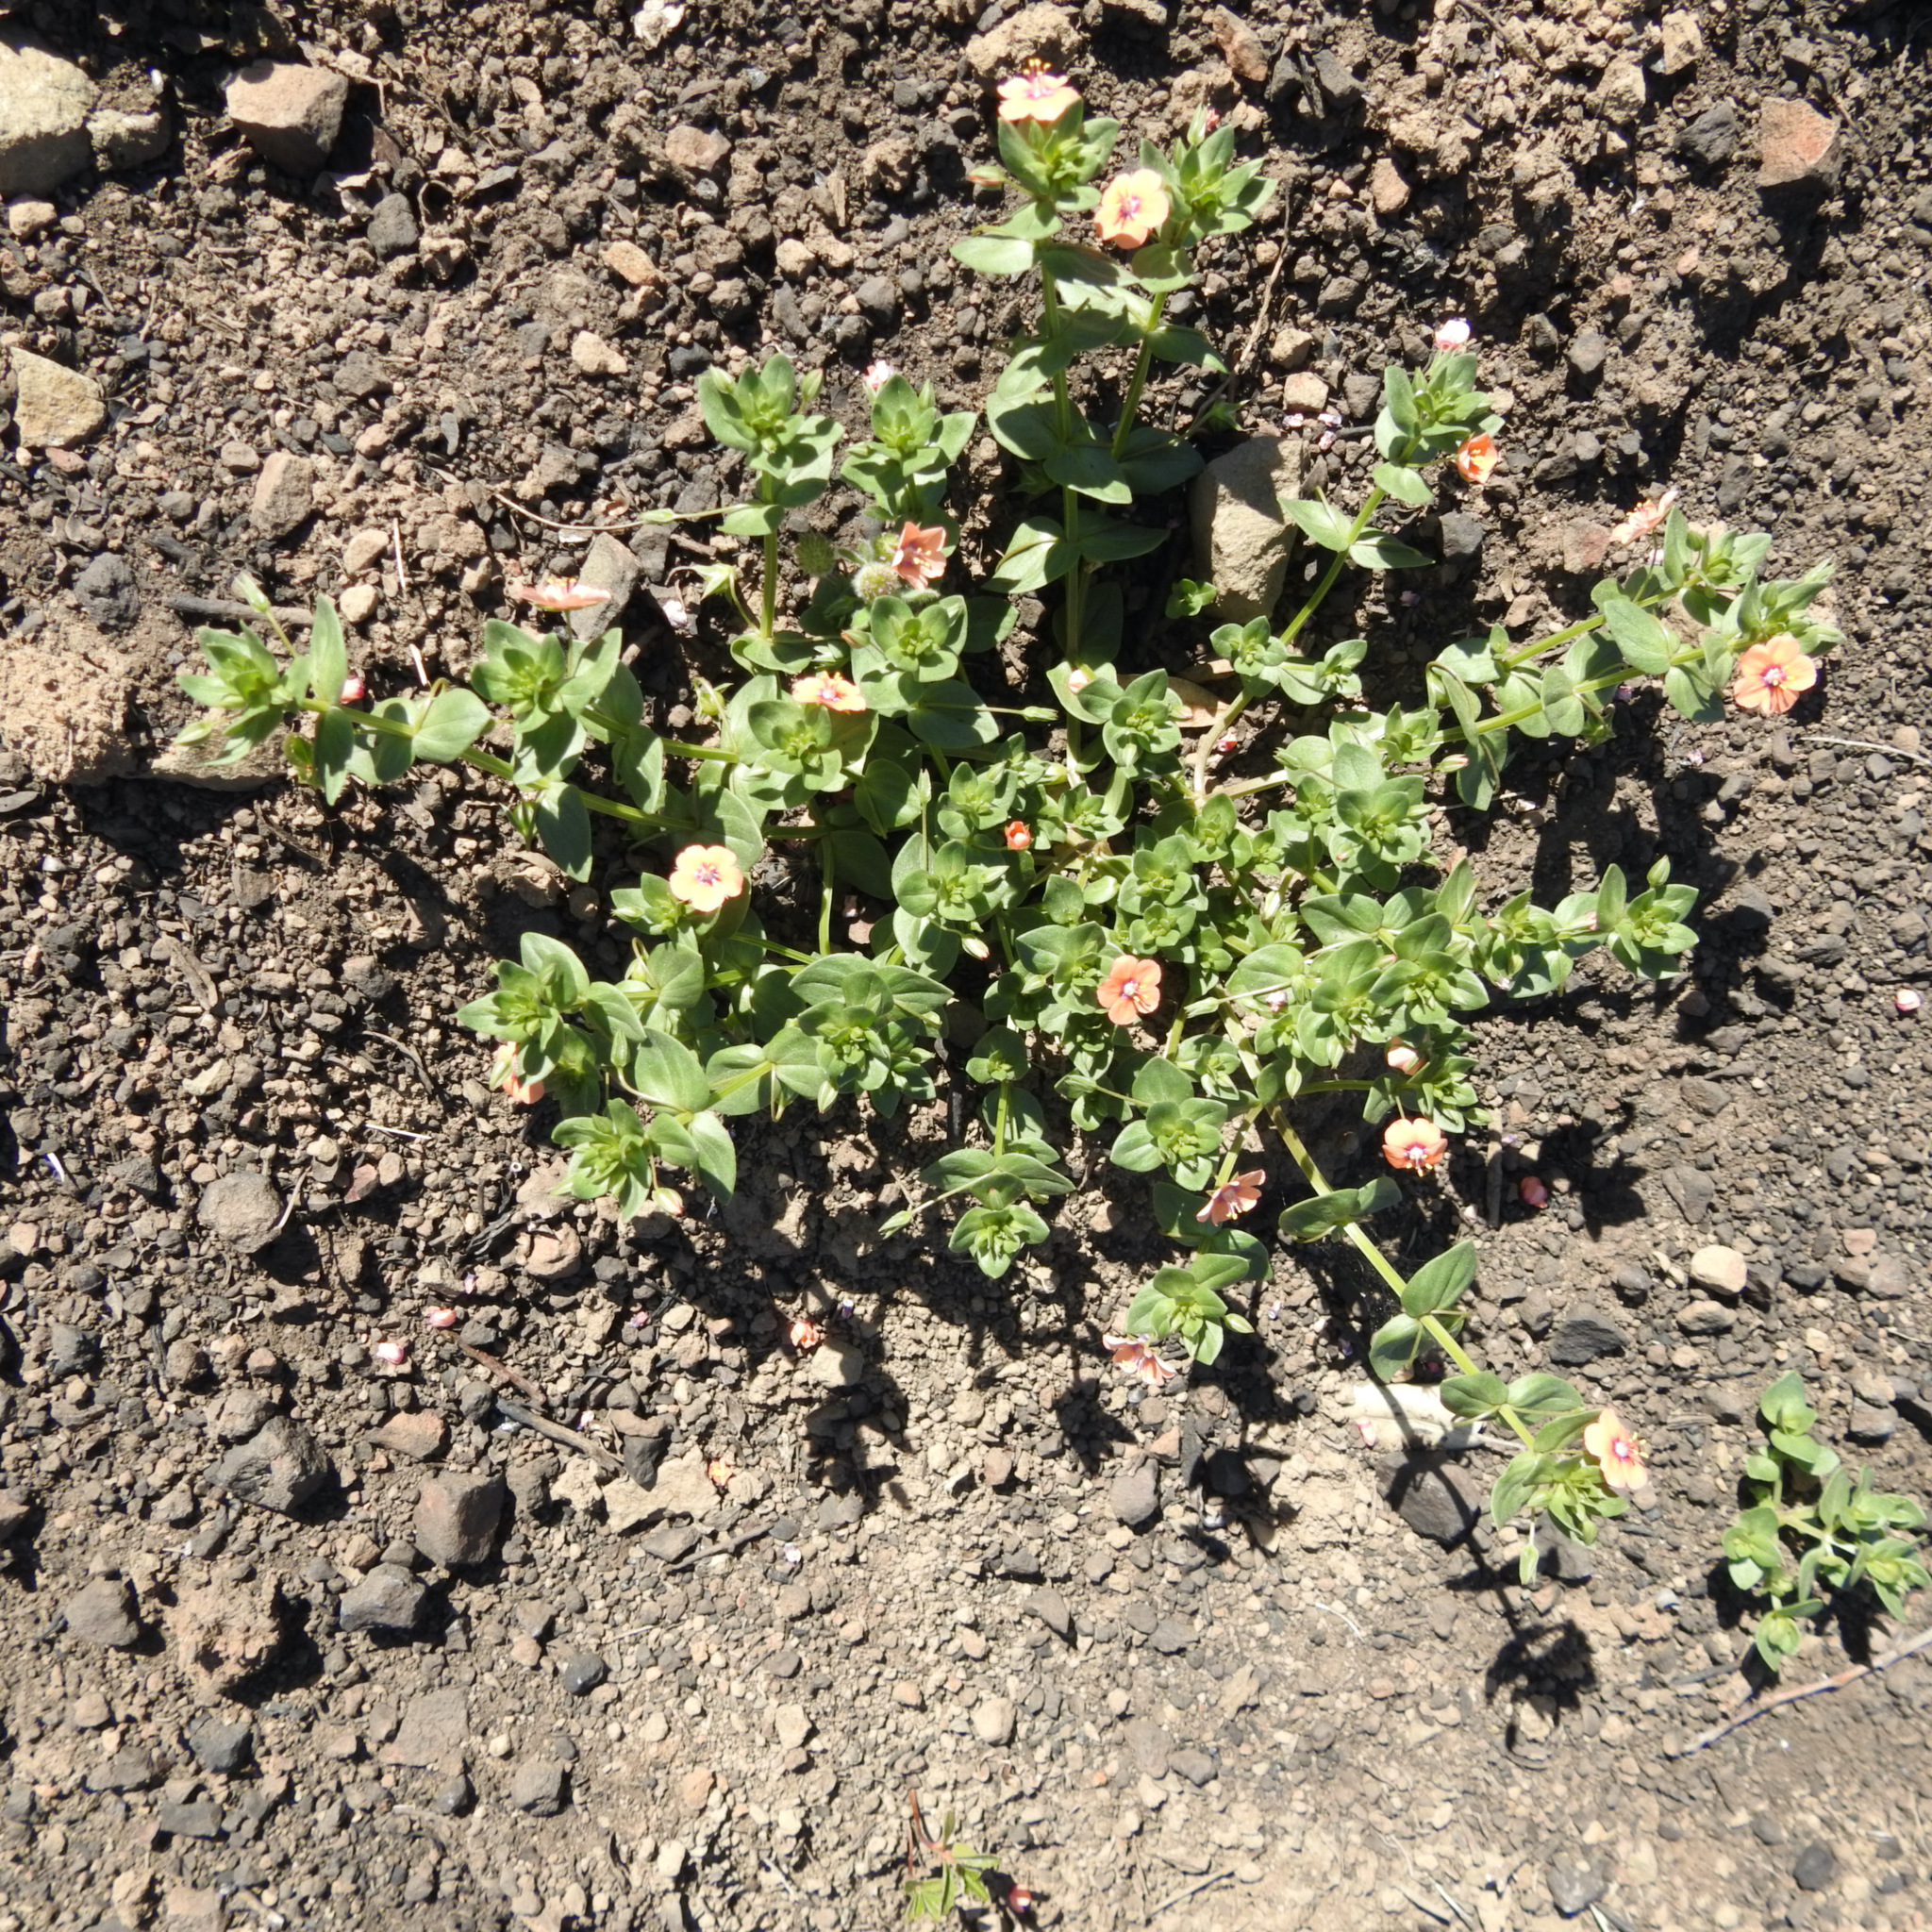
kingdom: Plantae
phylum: Tracheophyta
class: Magnoliopsida
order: Ericales
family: Primulaceae
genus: Lysimachia
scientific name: Lysimachia arvensis
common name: Scarlet pimpernel
